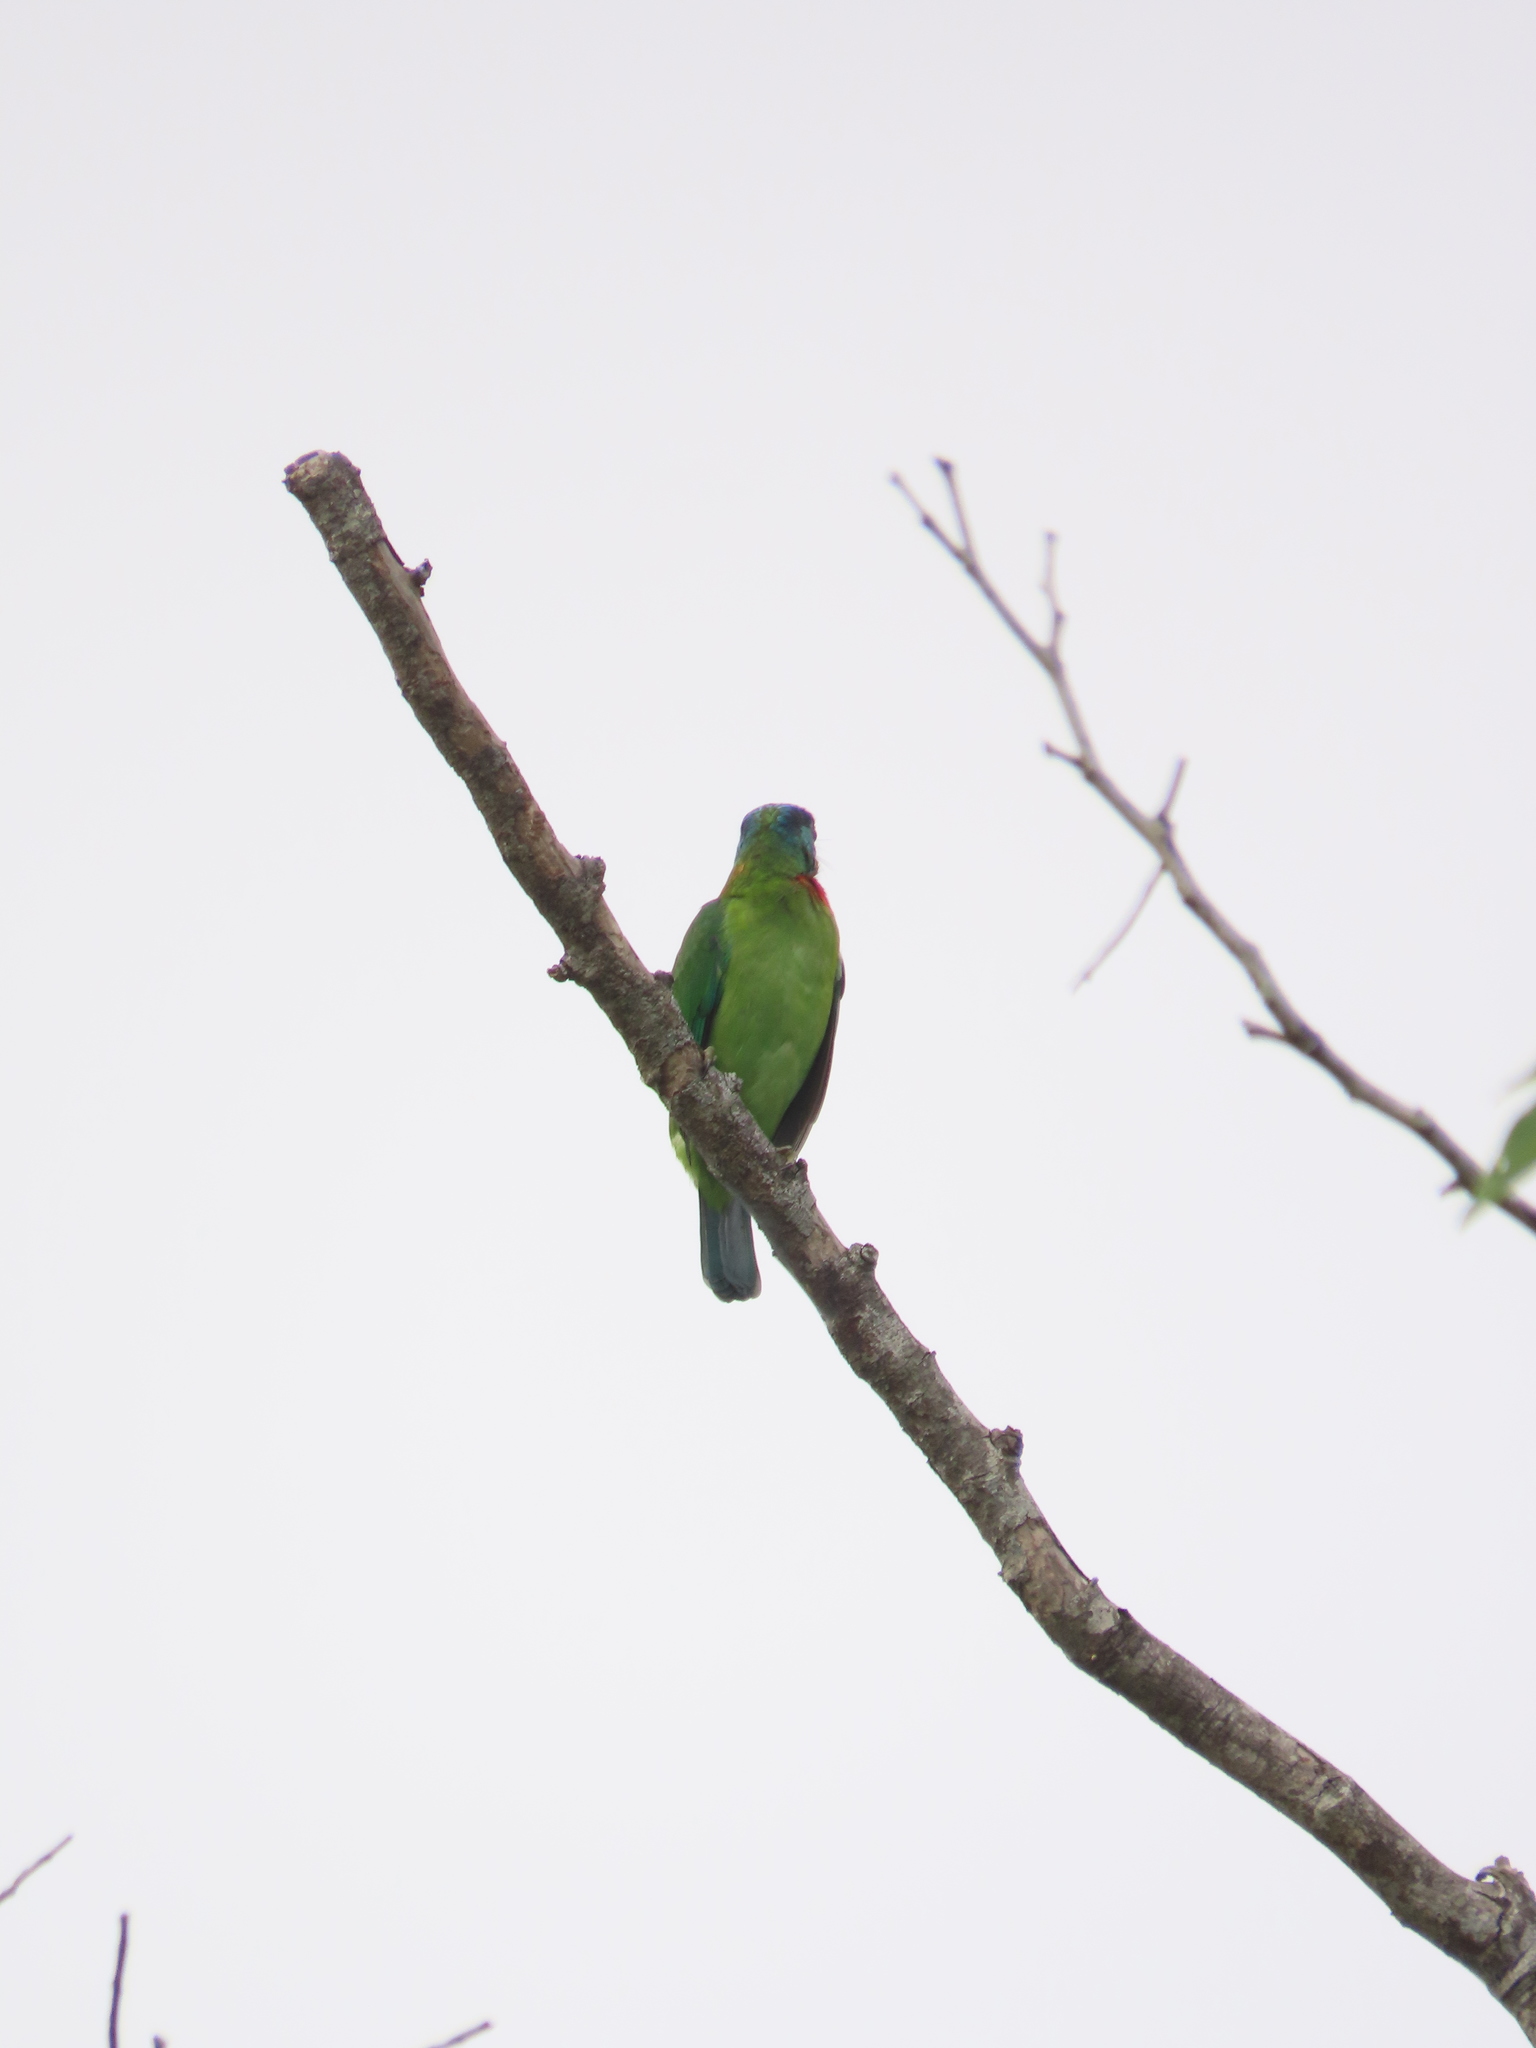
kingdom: Animalia
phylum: Chordata
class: Aves
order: Piciformes
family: Megalaimidae
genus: Psilopogon
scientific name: Psilopogon nuchalis
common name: Taiwan barbet
